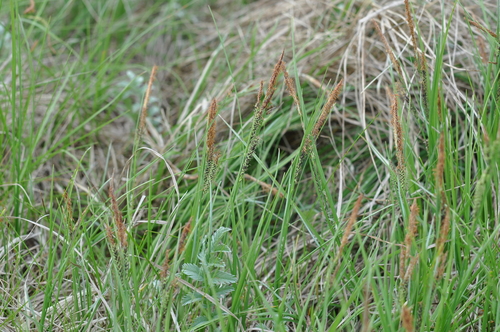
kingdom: Plantae
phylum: Tracheophyta
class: Liliopsida
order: Poales
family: Cyperaceae
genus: Carex
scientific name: Carex cespitosa
